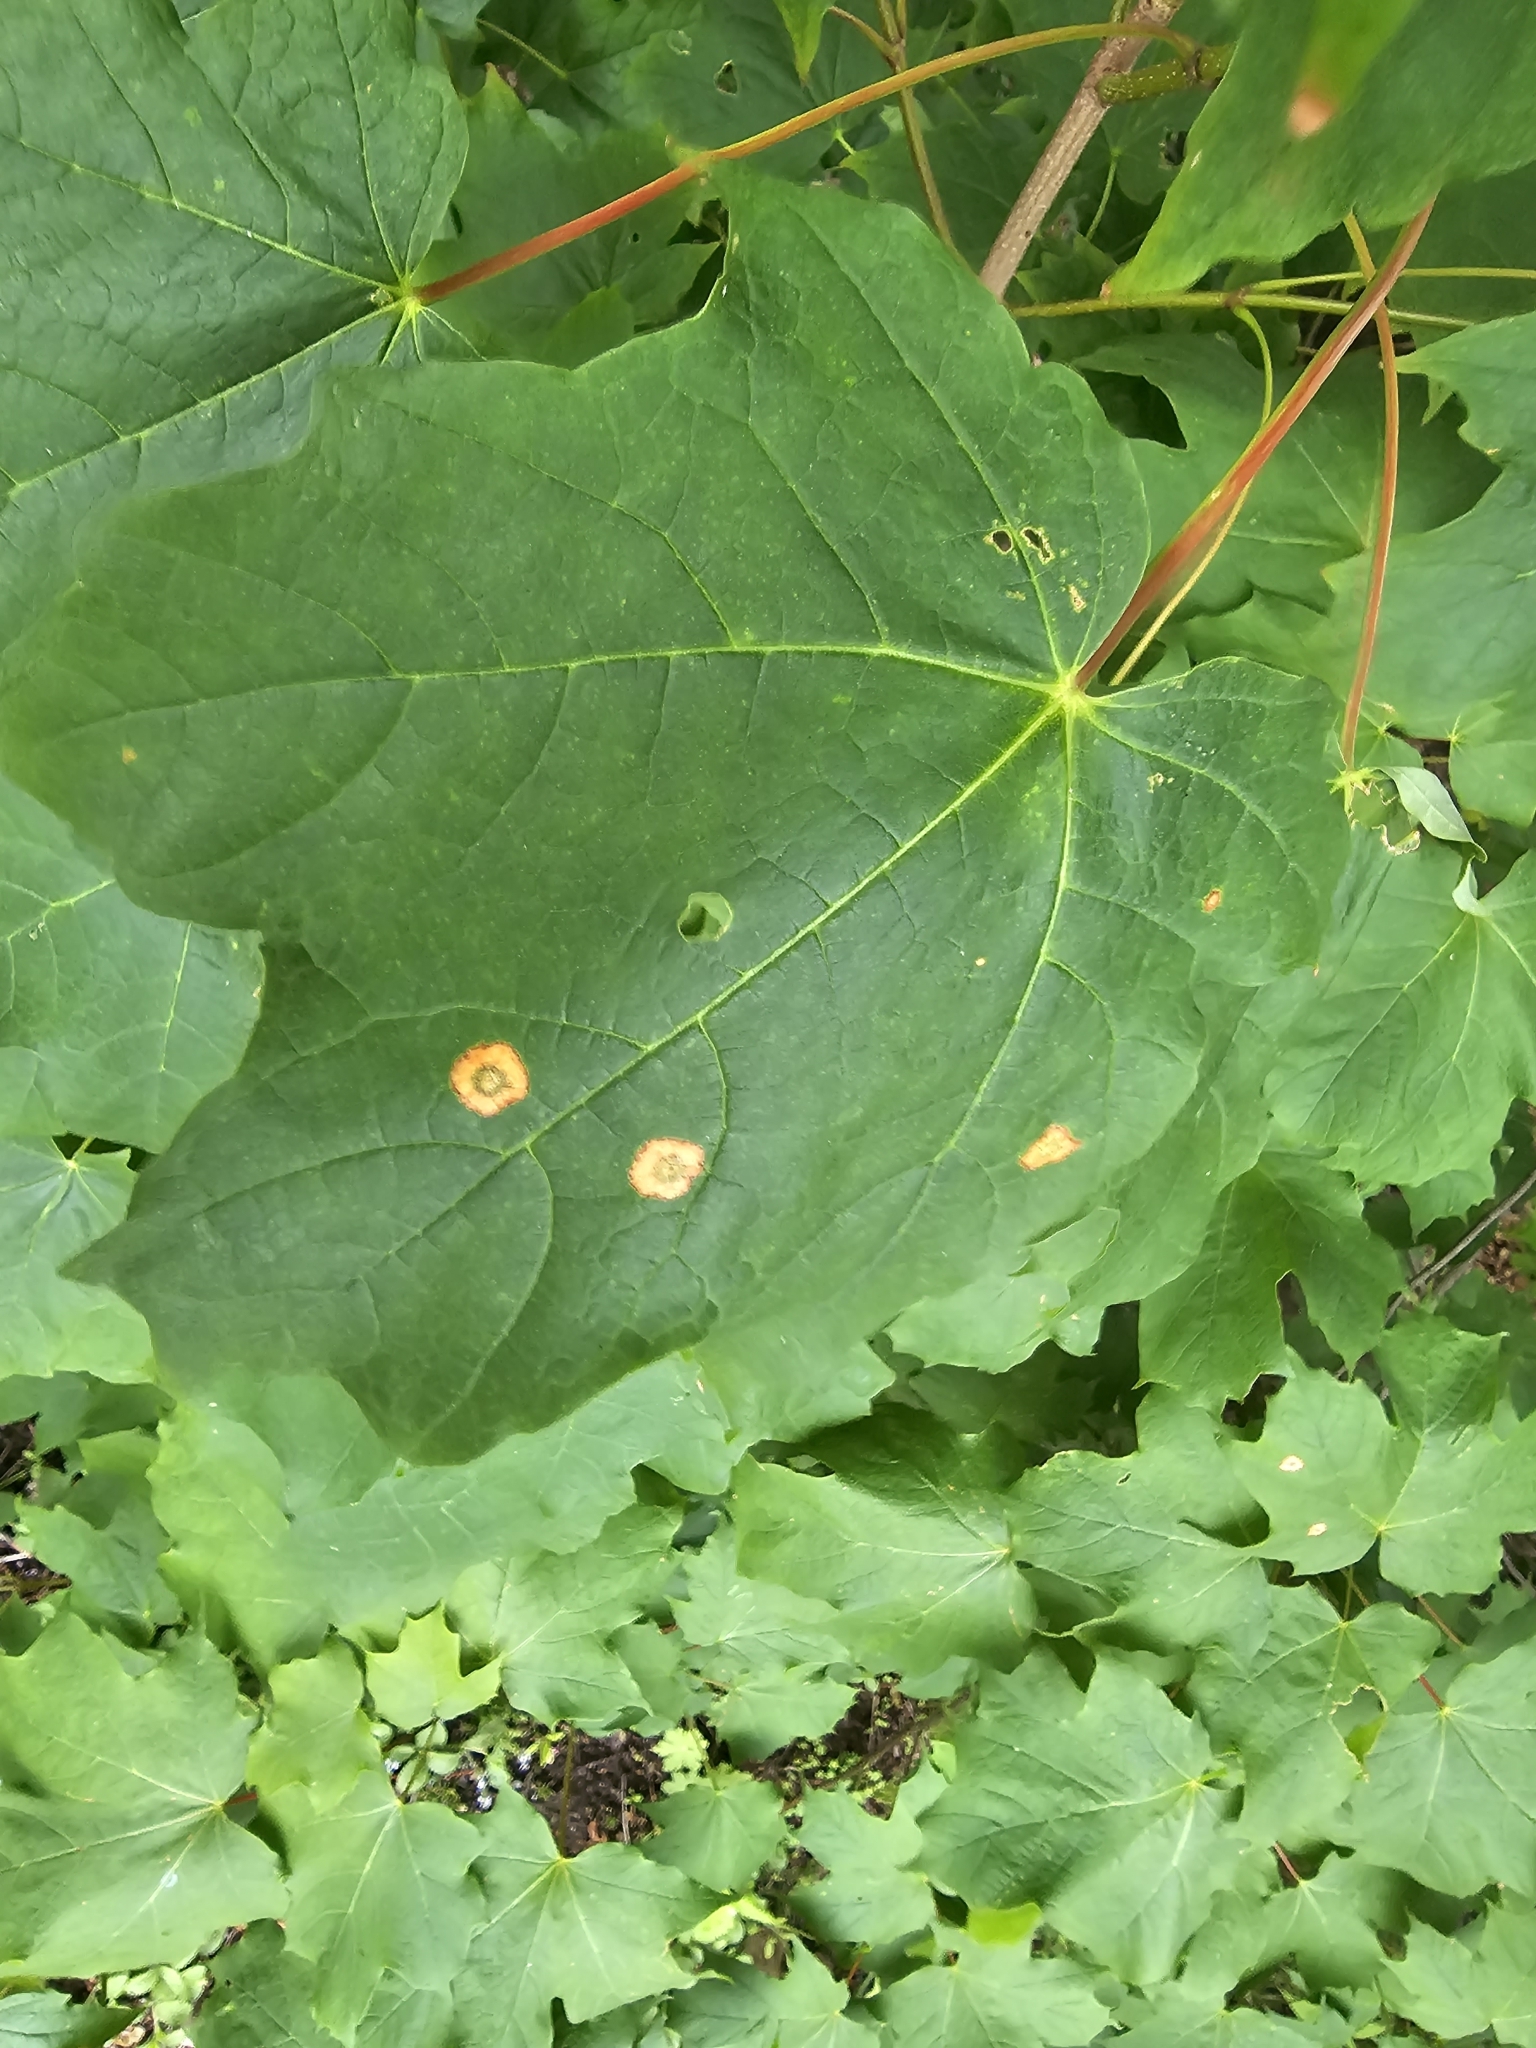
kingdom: Animalia
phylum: Arthropoda
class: Insecta
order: Diptera
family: Cecidomyiidae
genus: Acericecis
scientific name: Acericecis ocellaris
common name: Ocellate gall midge
